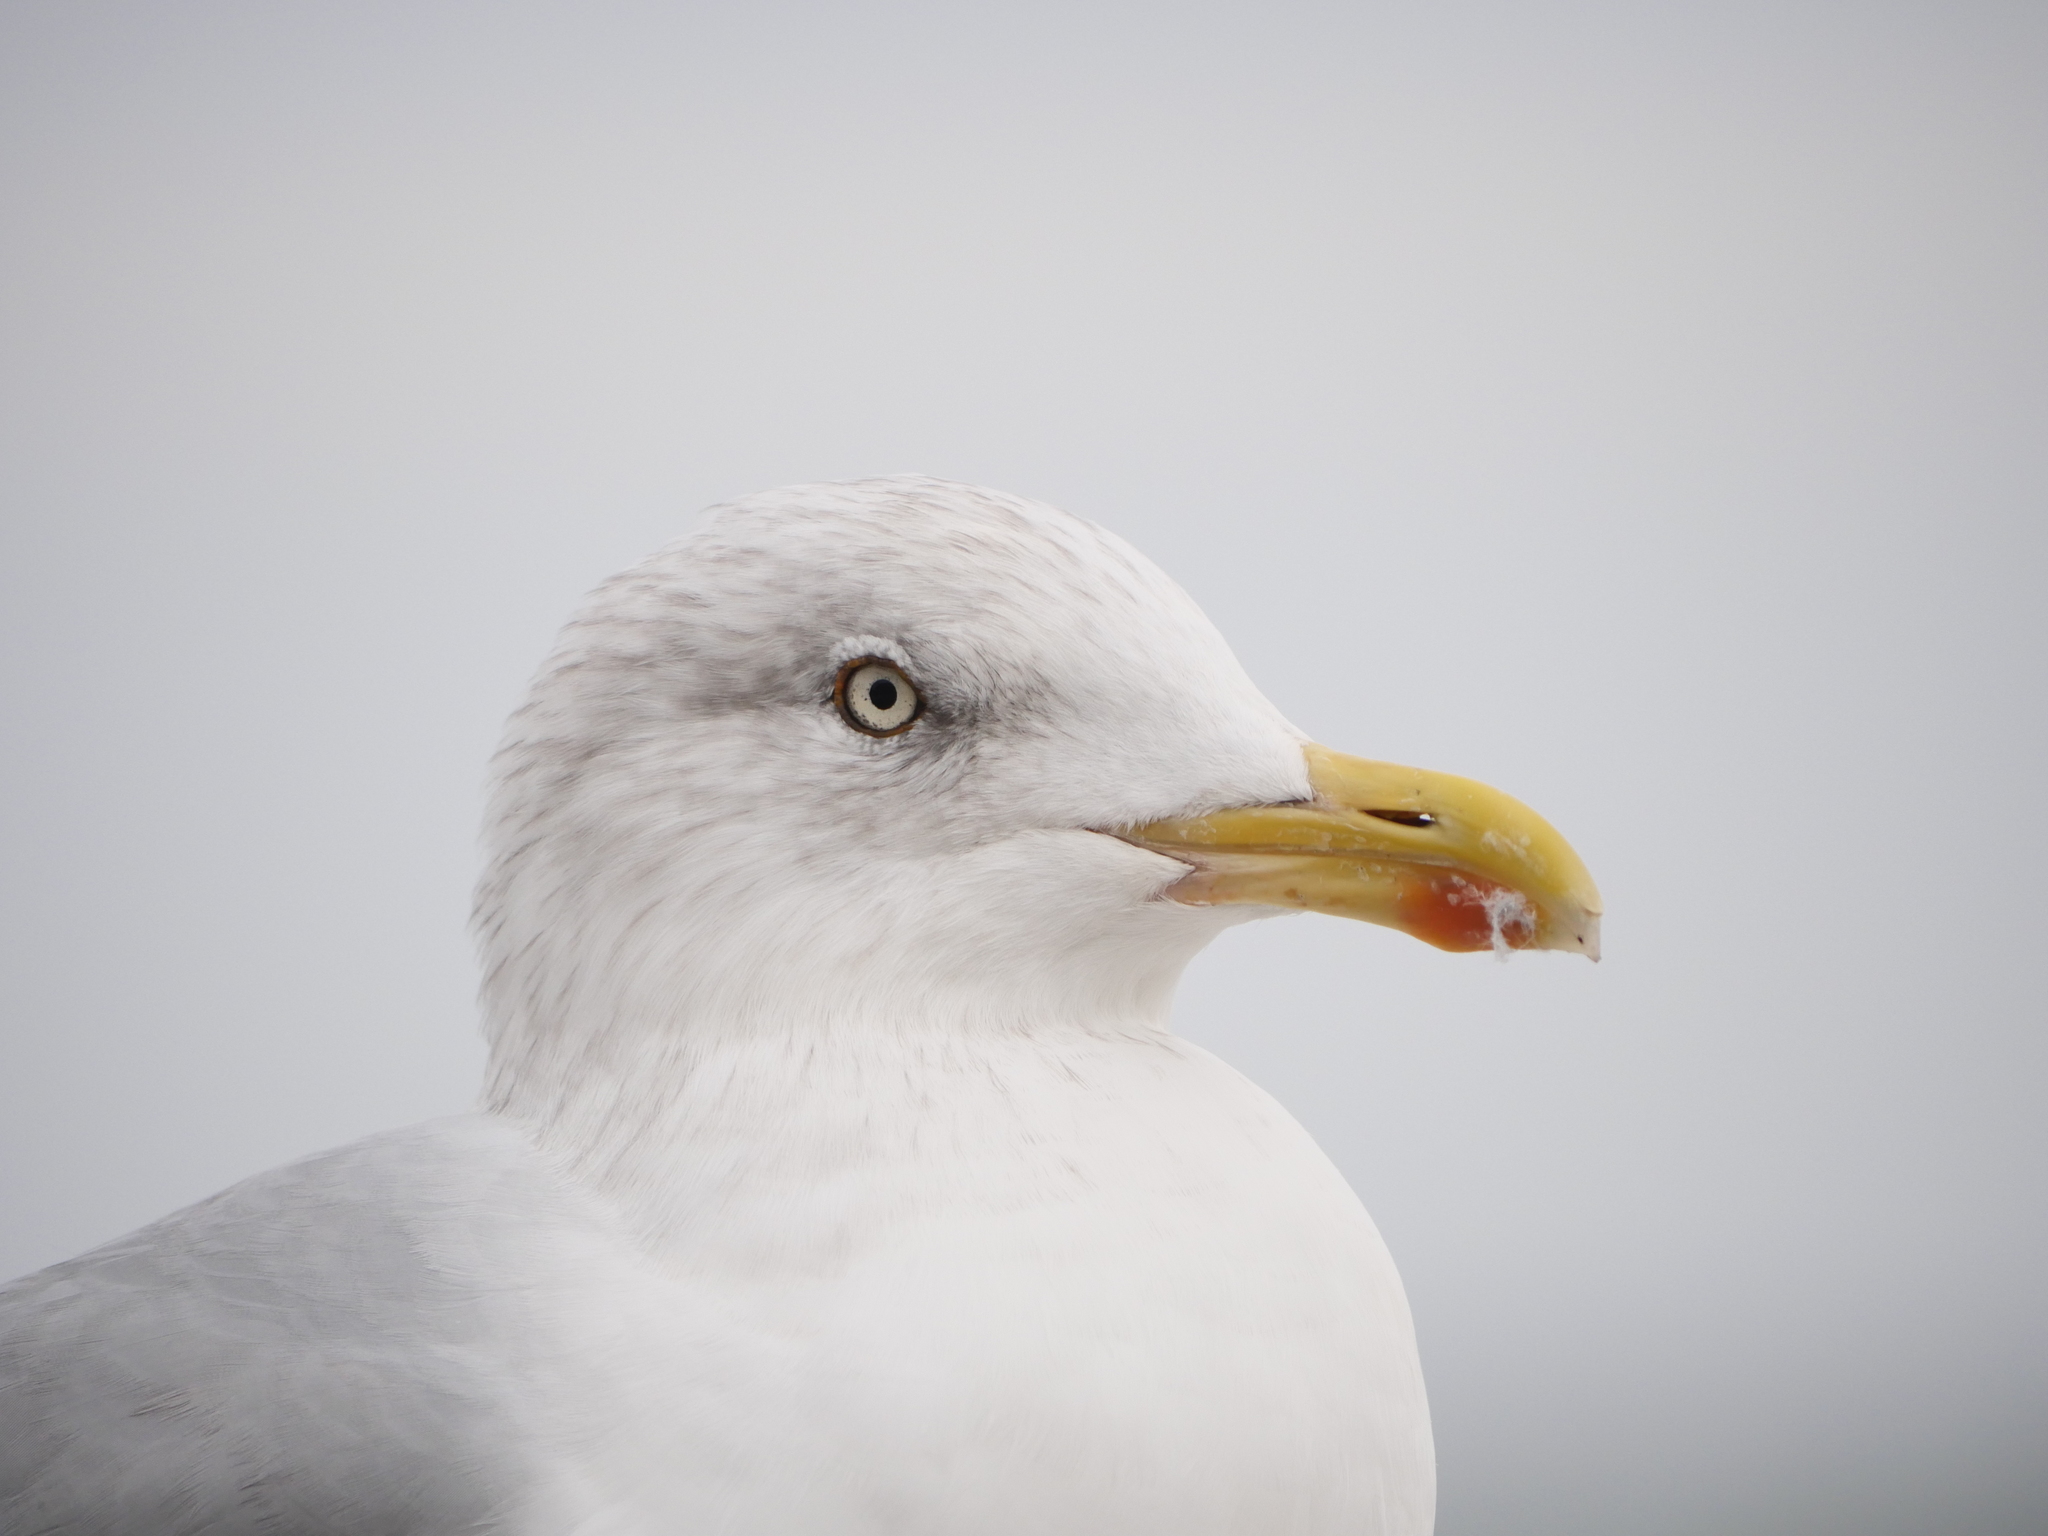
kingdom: Animalia
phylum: Chordata
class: Aves
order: Charadriiformes
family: Laridae
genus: Larus
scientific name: Larus argentatus
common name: Herring gull
